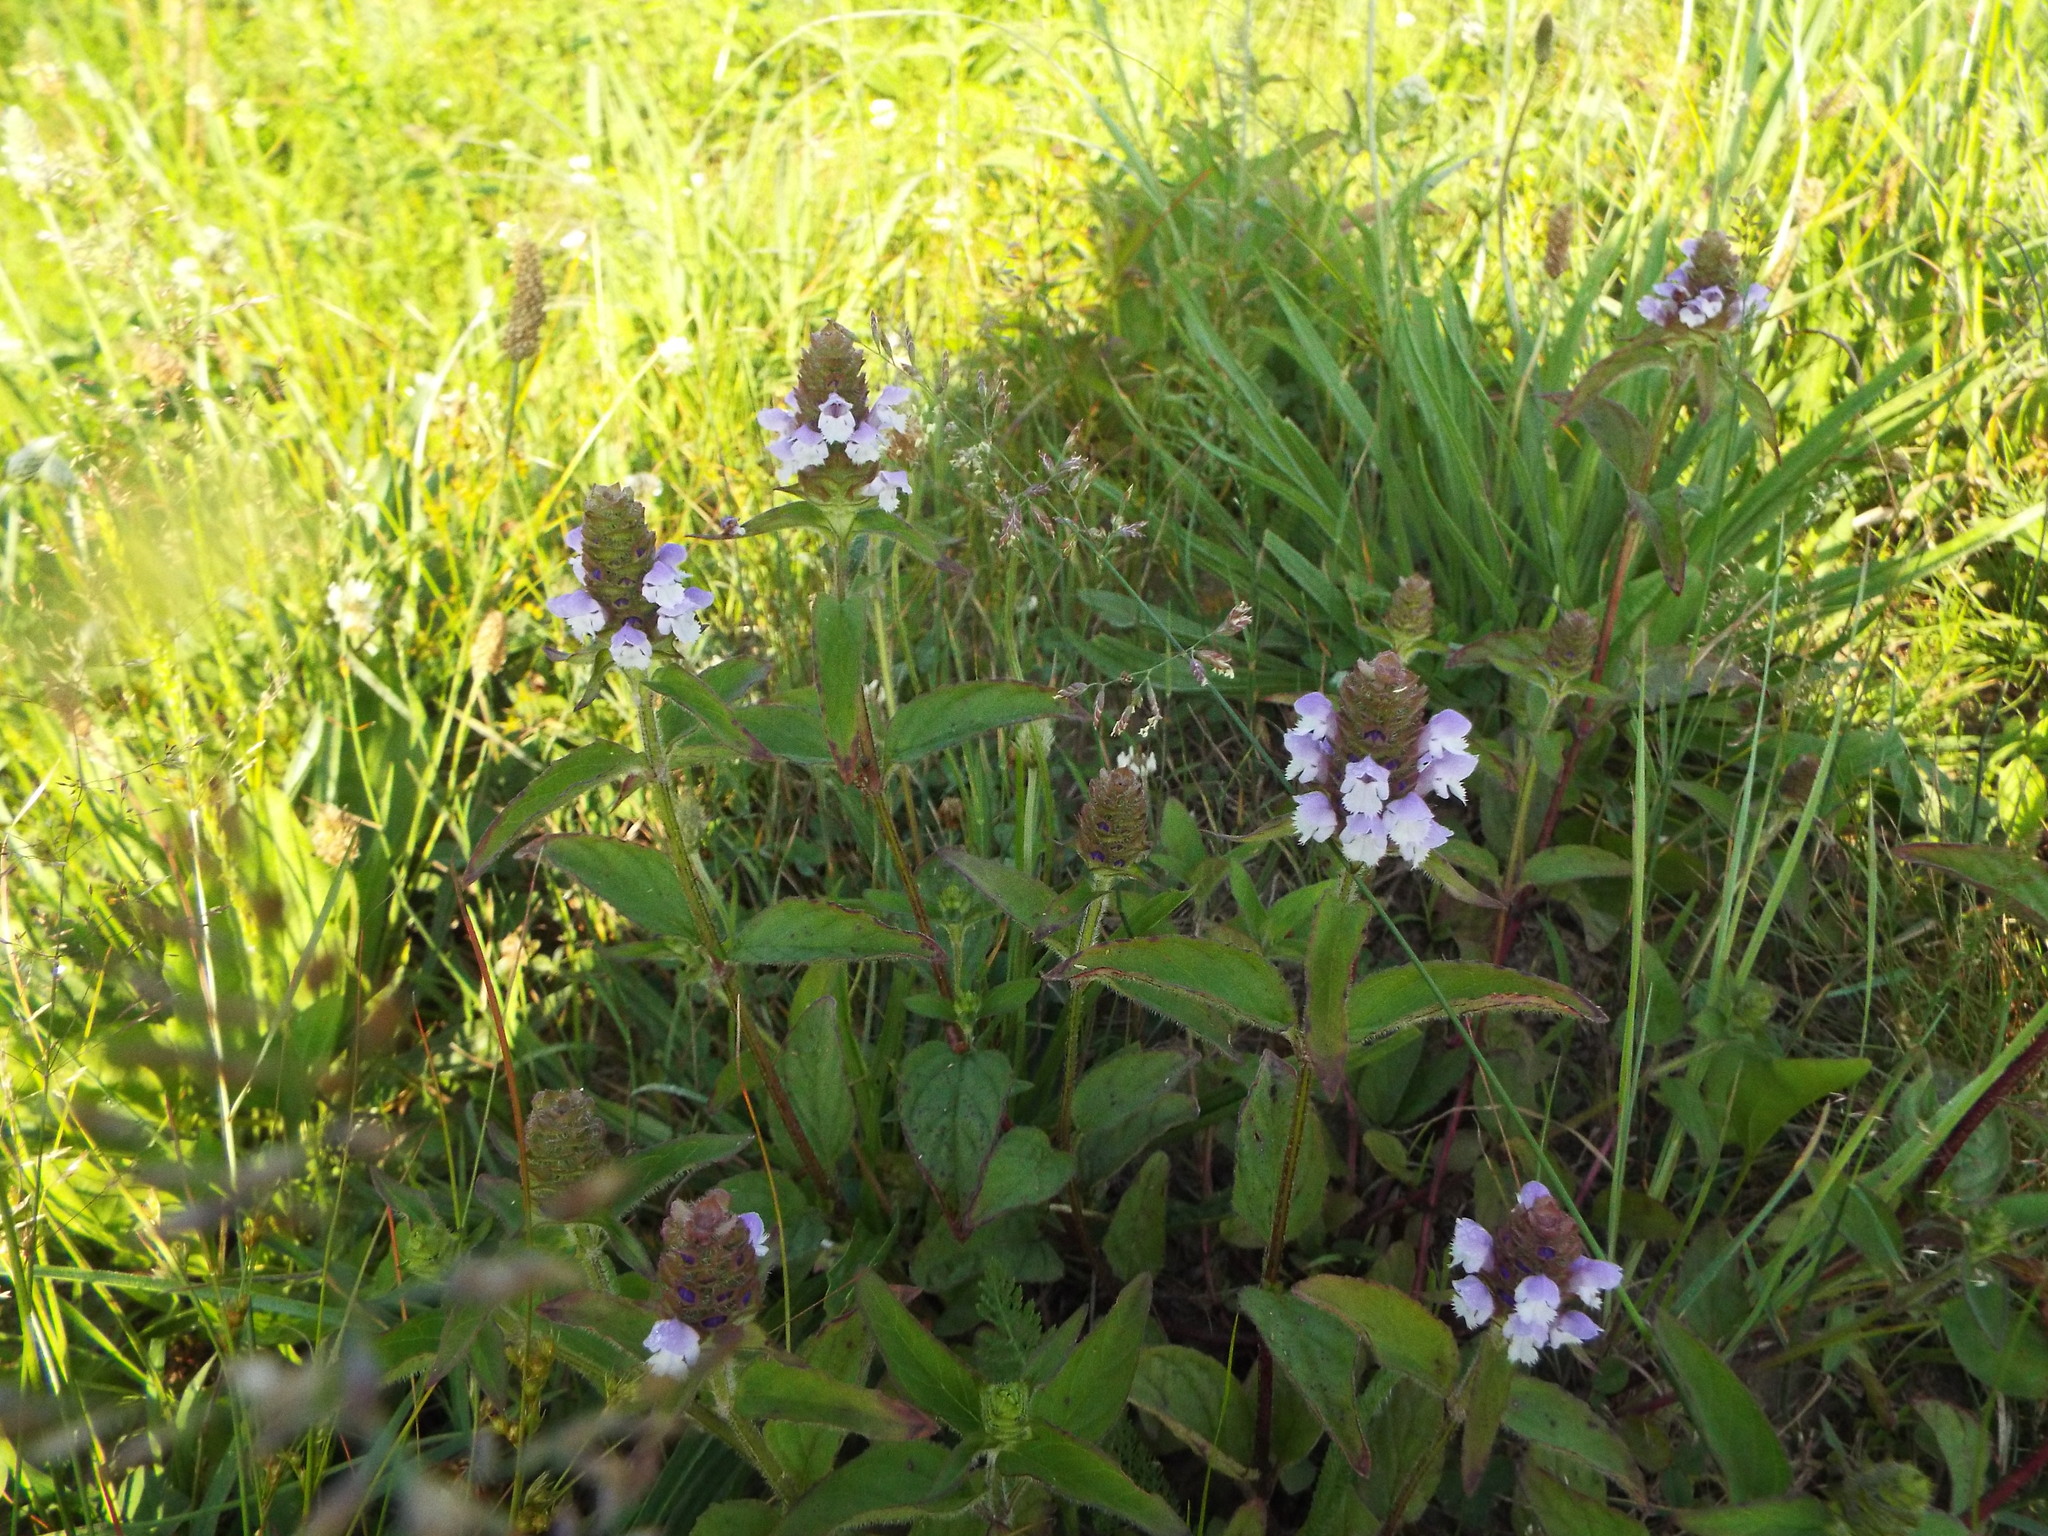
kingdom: Plantae
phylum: Tracheophyta
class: Magnoliopsida
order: Lamiales
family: Lamiaceae
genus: Prunella
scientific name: Prunella vulgaris
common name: Heal-all
